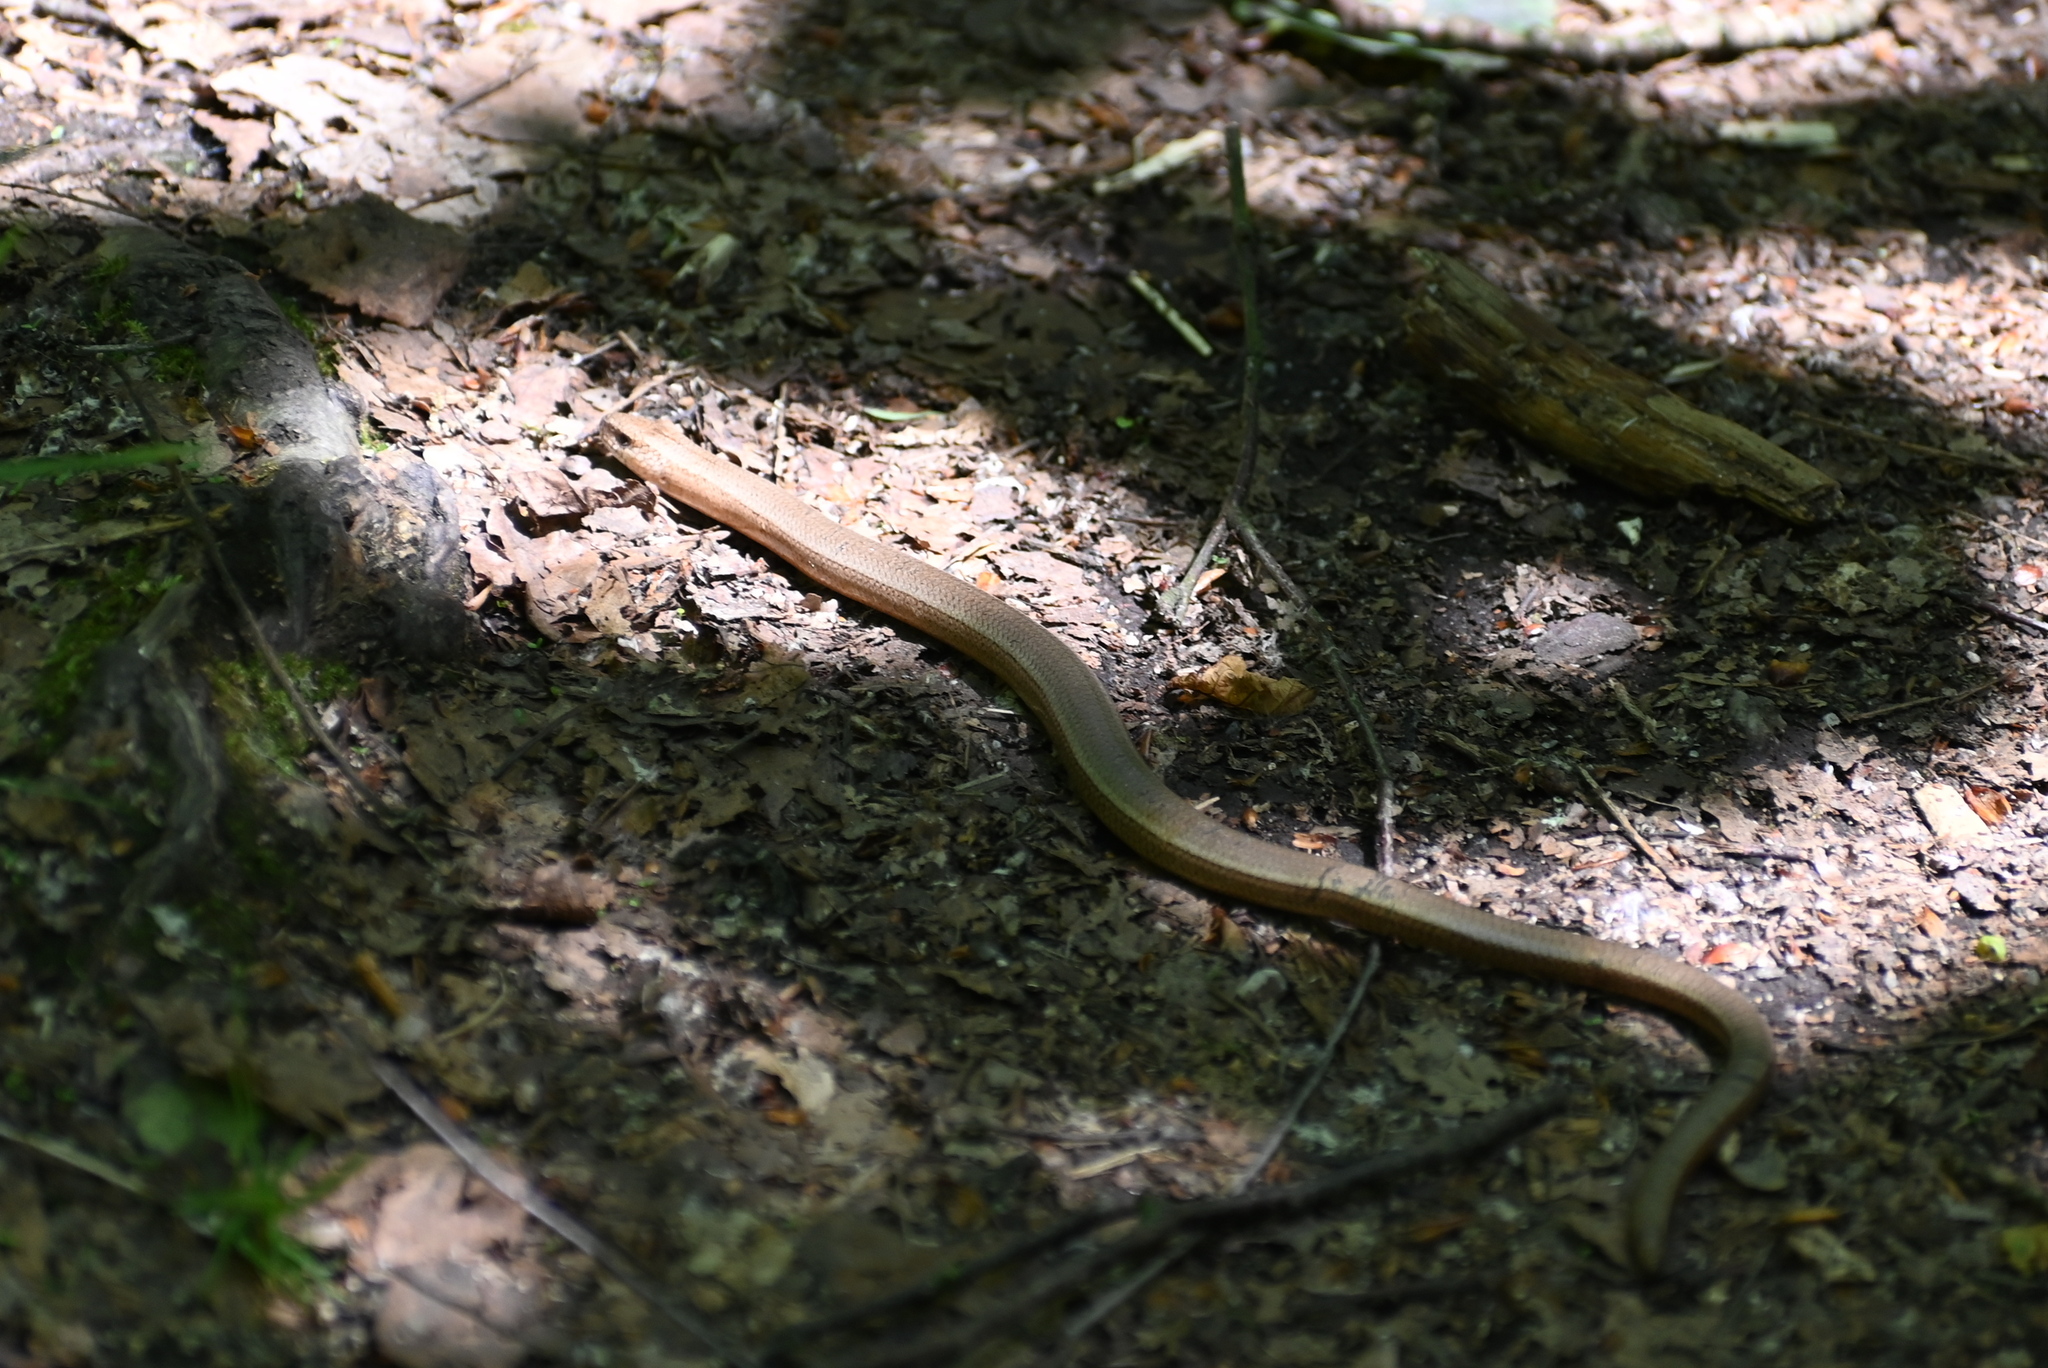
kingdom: Animalia
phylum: Chordata
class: Squamata
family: Anguidae
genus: Anguis
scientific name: Anguis fragilis
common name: Slow worm
